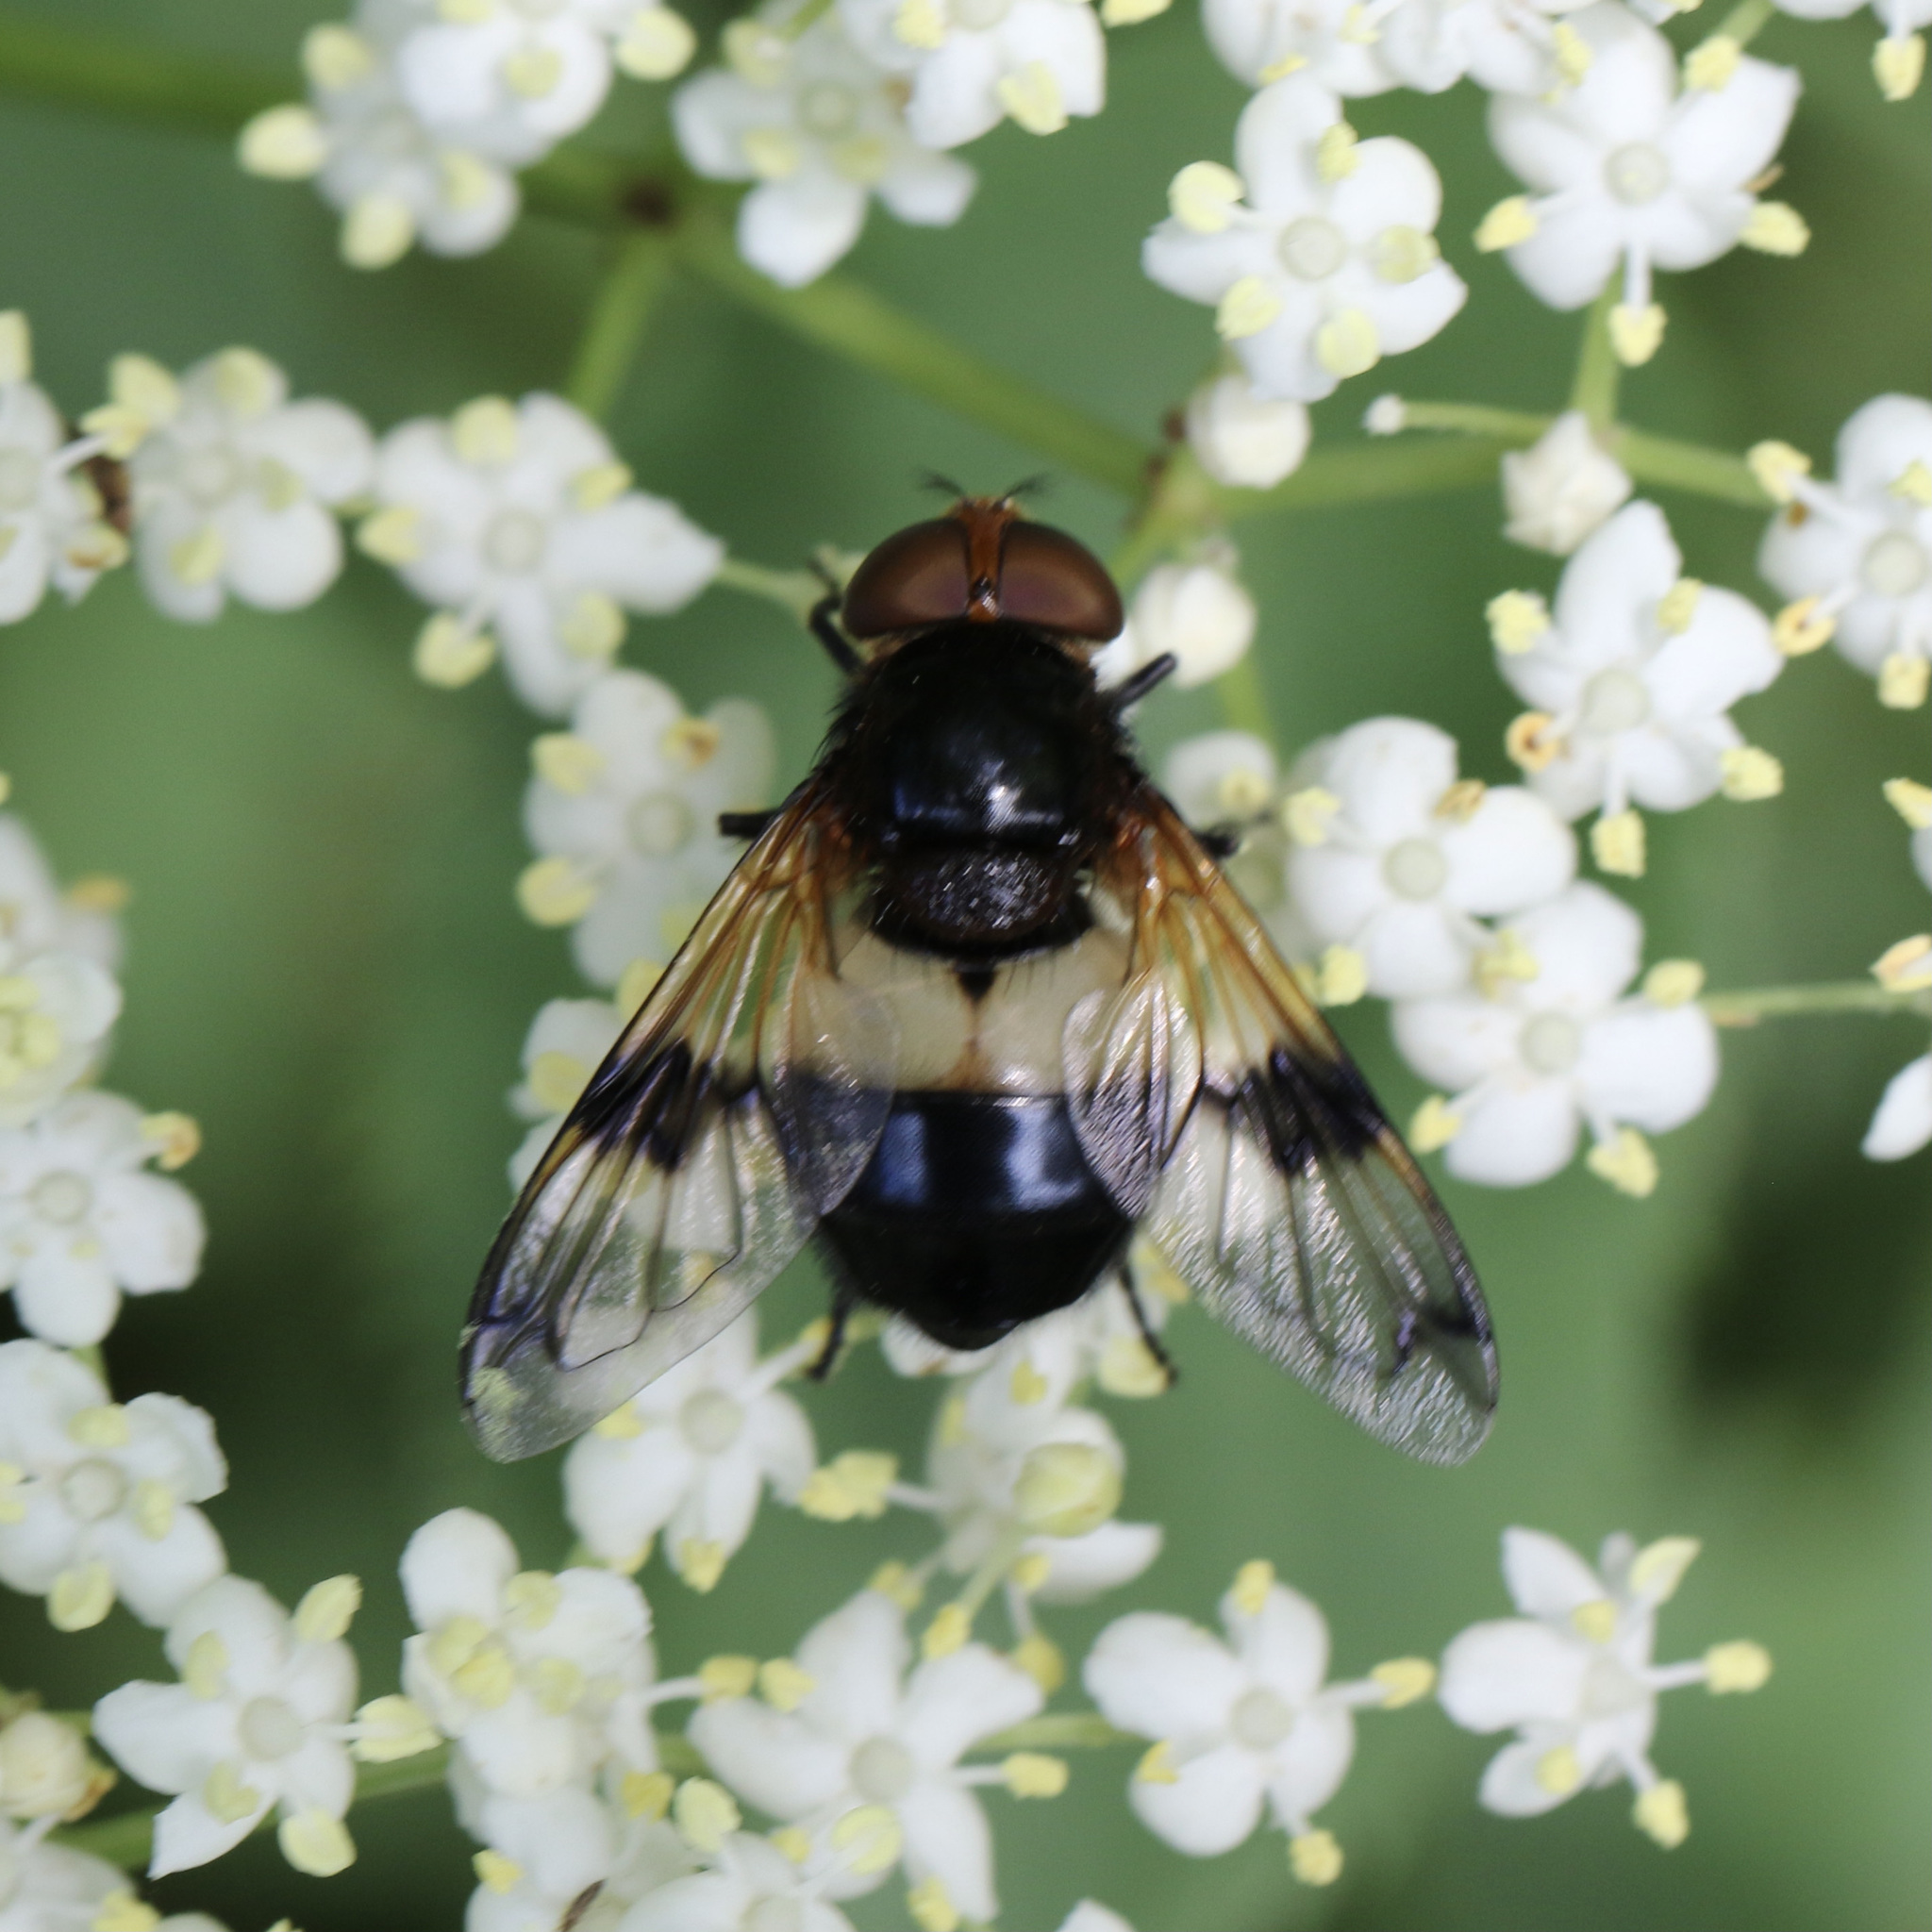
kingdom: Animalia
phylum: Arthropoda
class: Insecta
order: Diptera
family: Syrphidae
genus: Volucella
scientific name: Volucella pellucens
